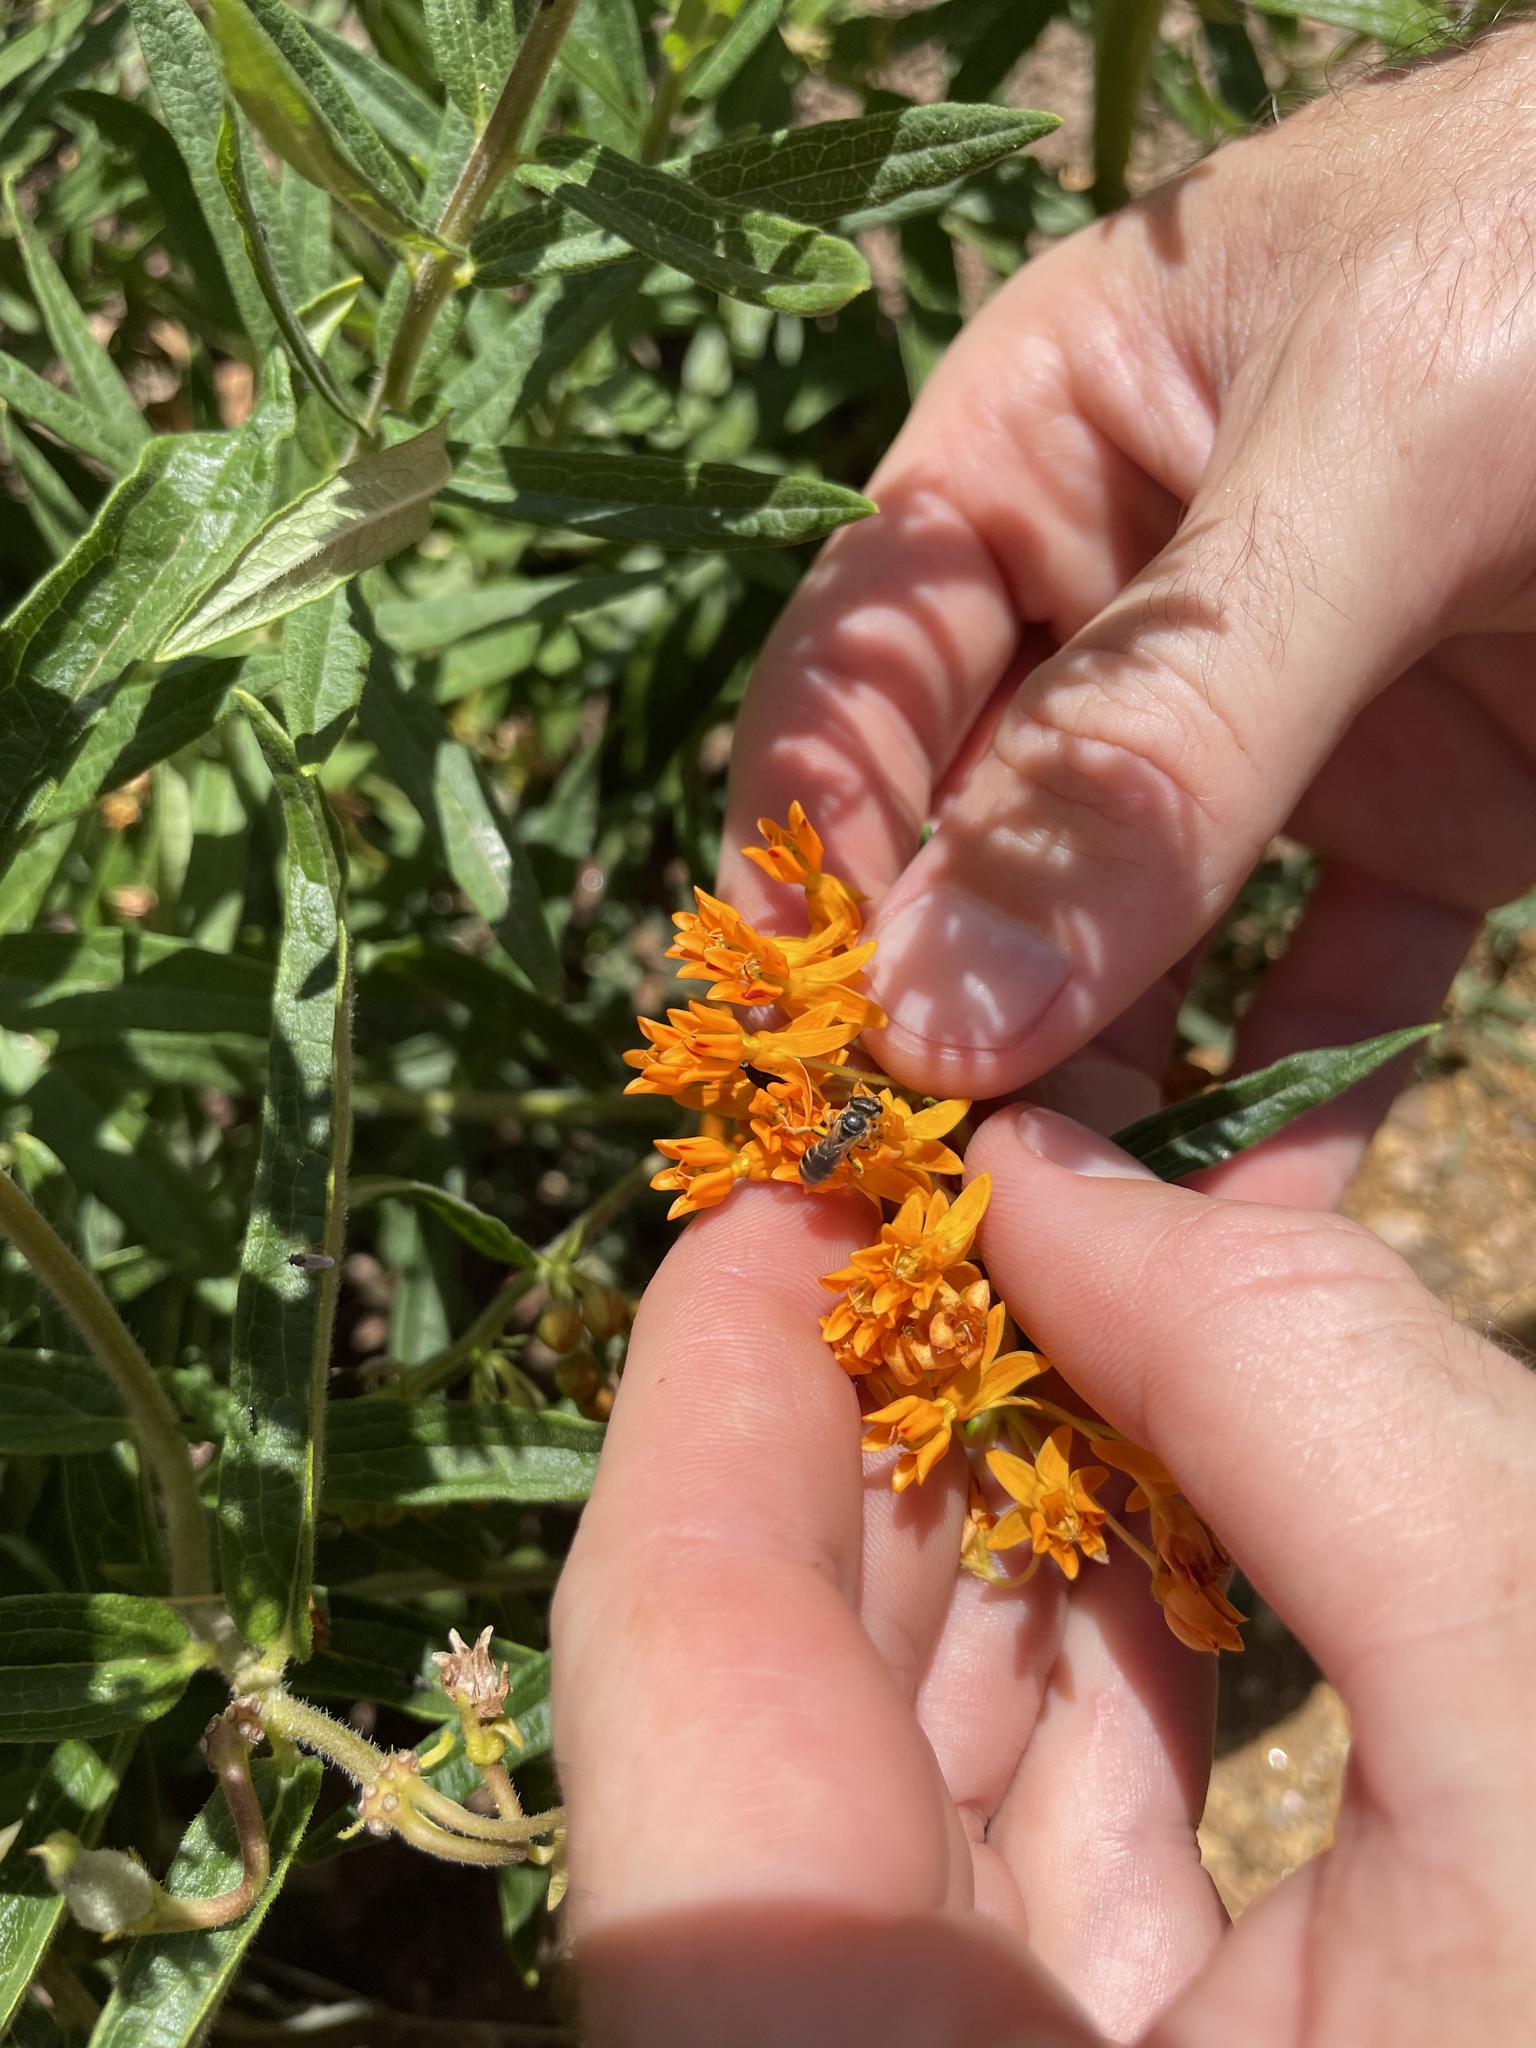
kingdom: Animalia
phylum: Arthropoda
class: Insecta
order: Hymenoptera
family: Halictidae
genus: Halictus
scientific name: Halictus ligatus
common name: Ligated furrow bee
